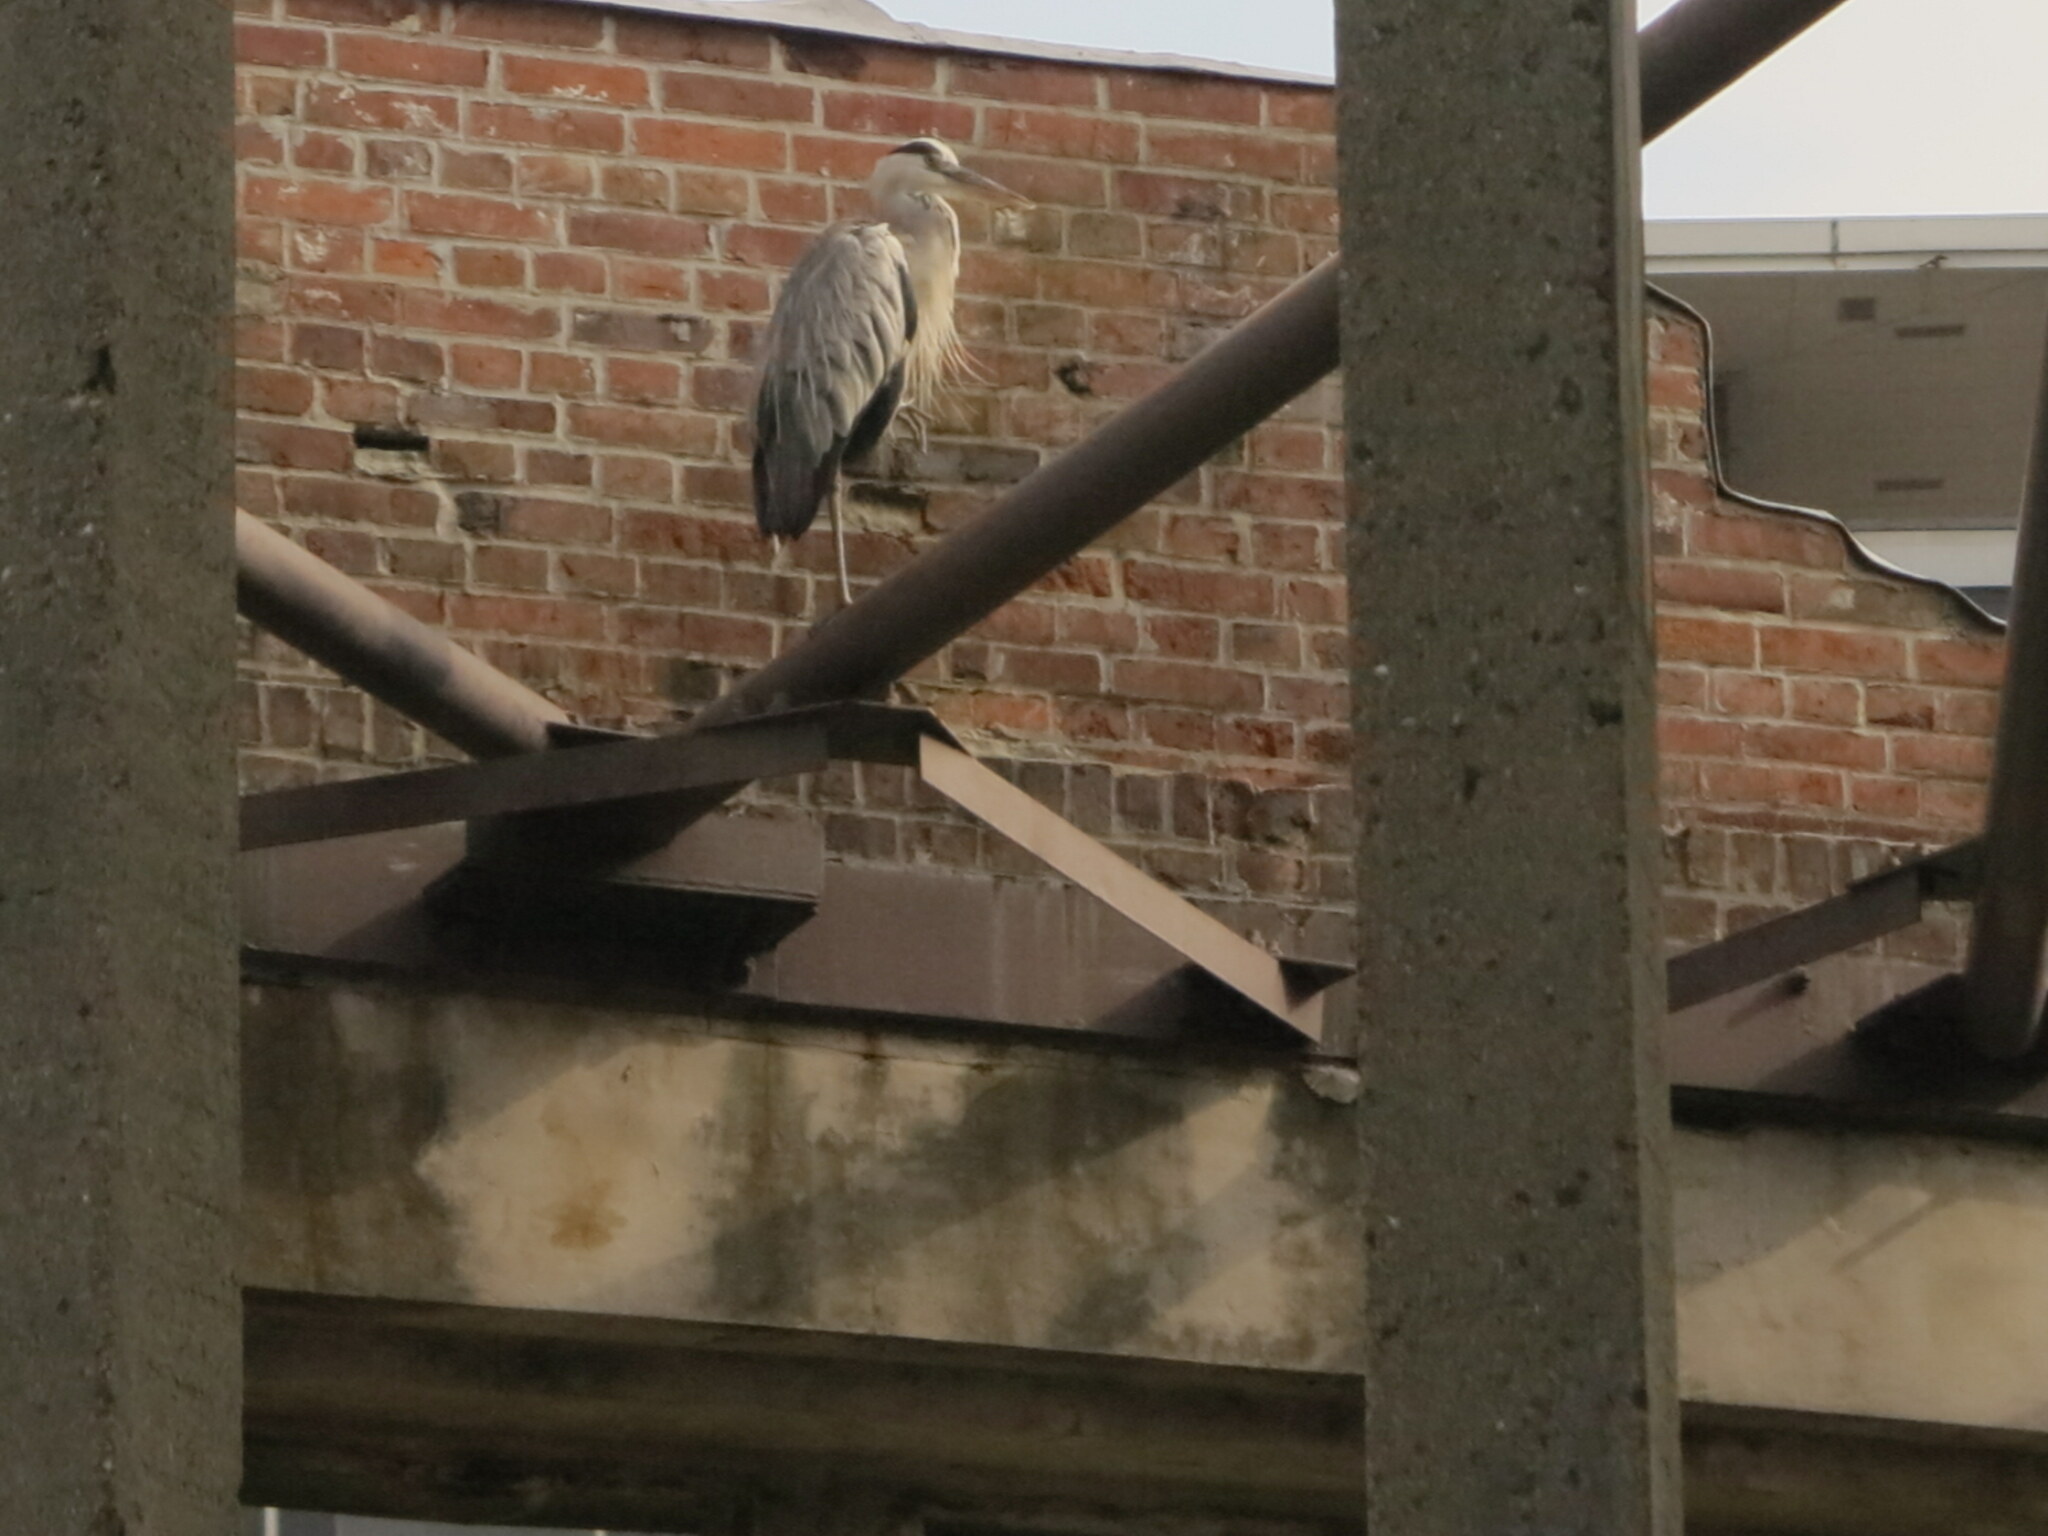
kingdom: Animalia
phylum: Chordata
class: Aves
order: Pelecaniformes
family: Ardeidae
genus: Ardea
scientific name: Ardea cinerea
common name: Grey heron
